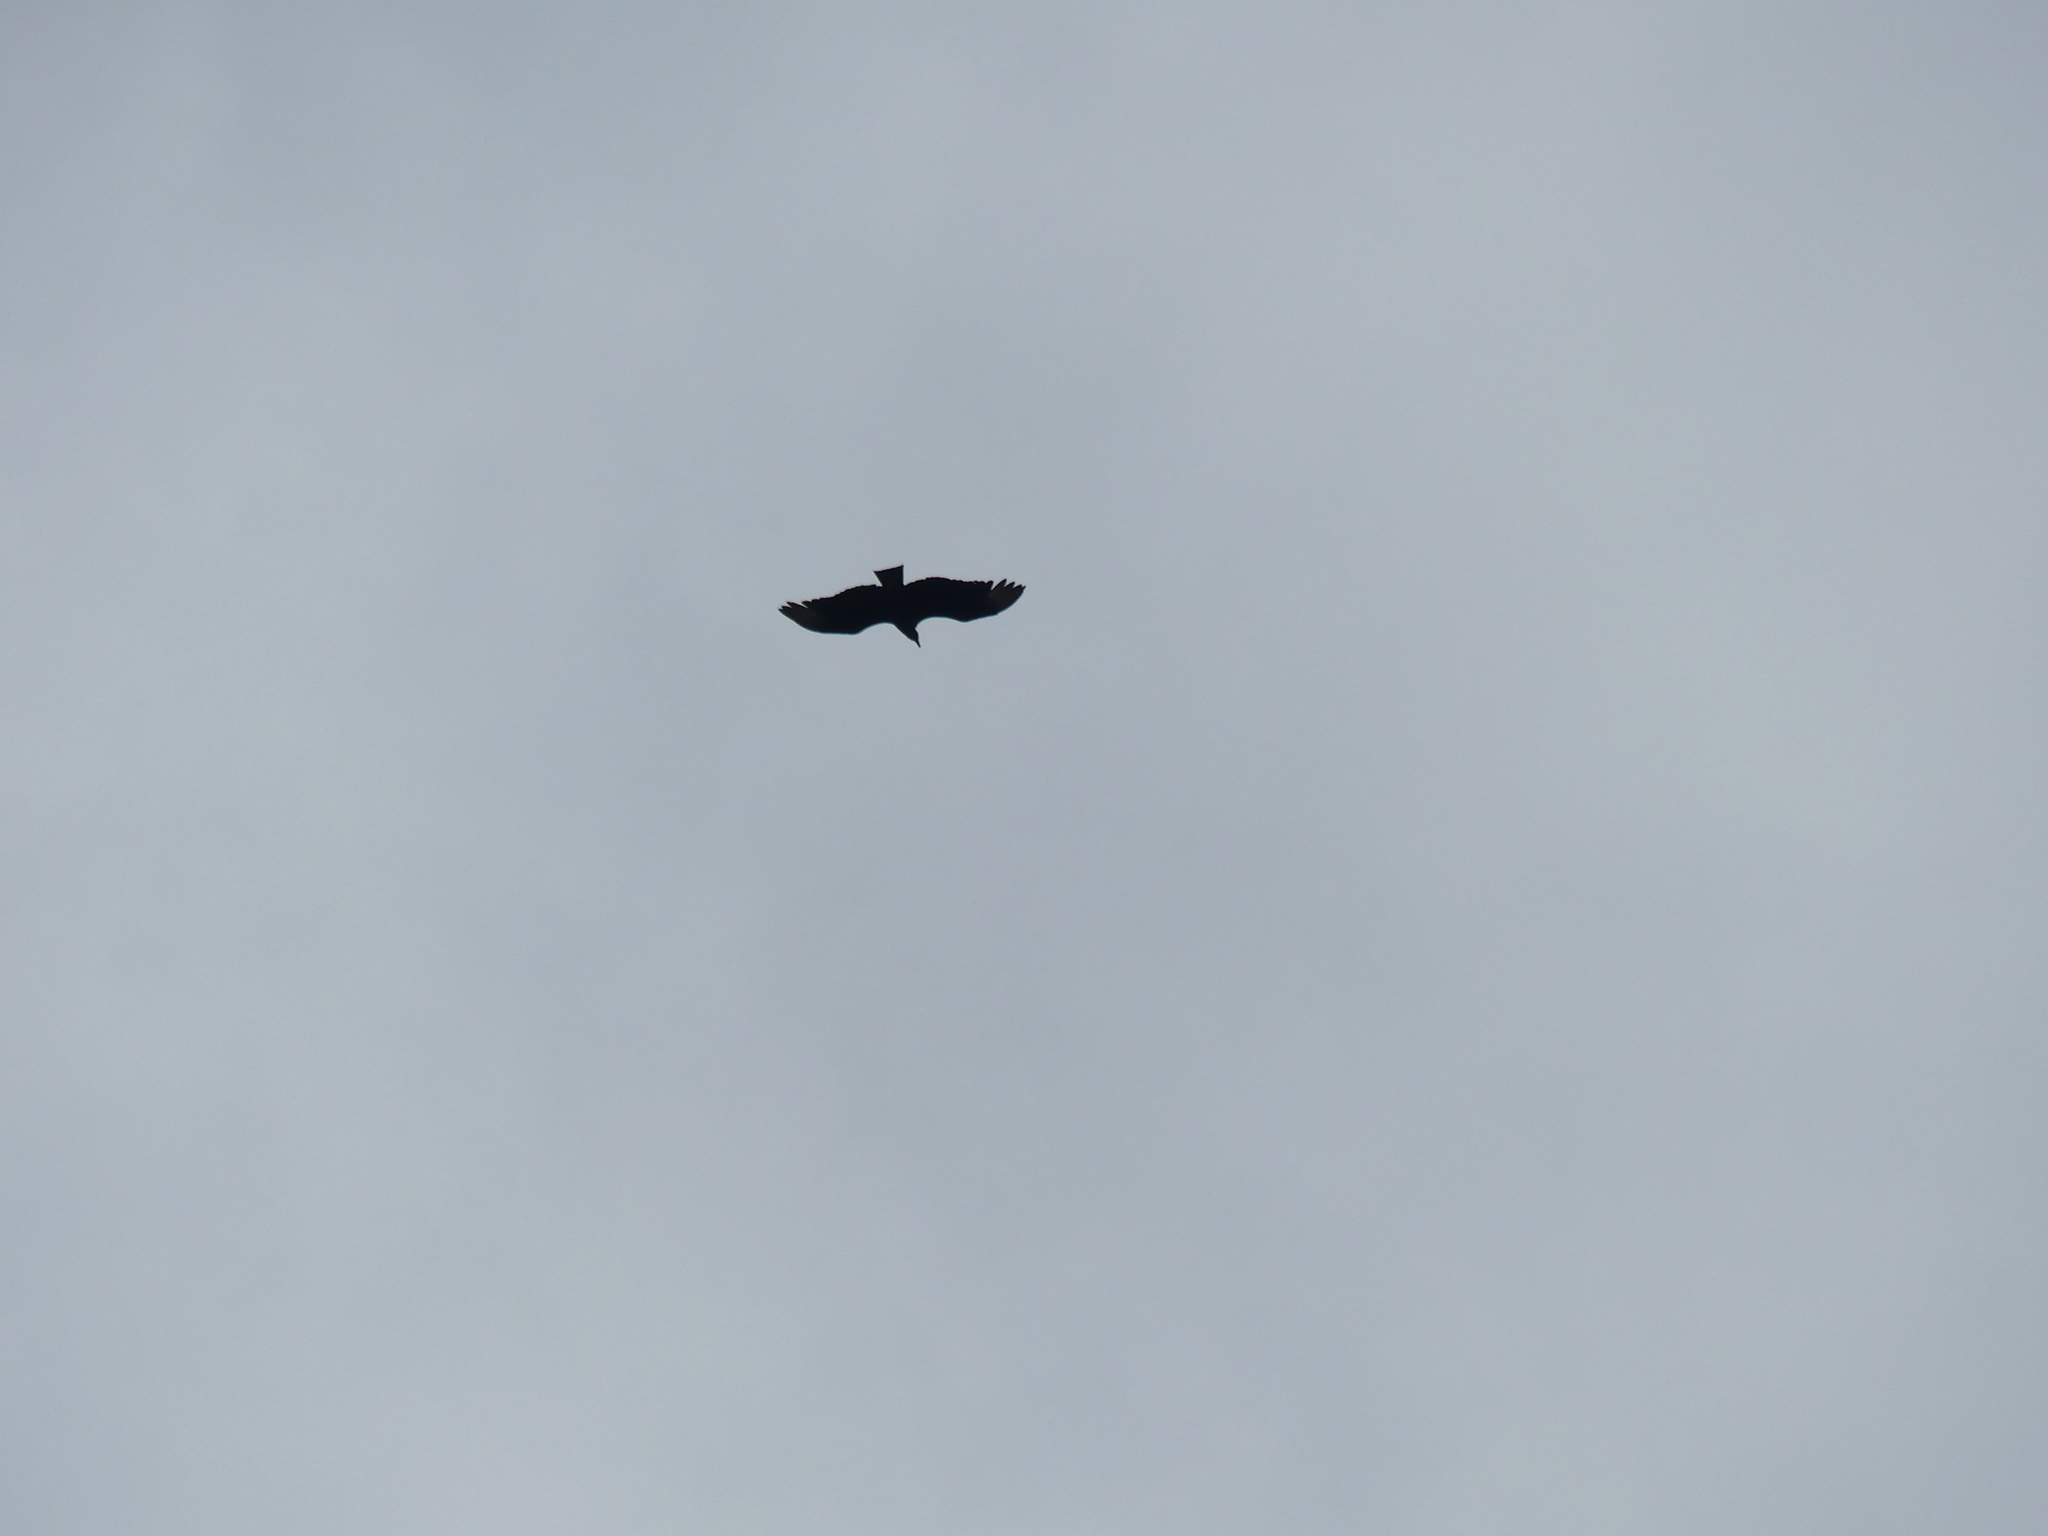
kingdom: Animalia
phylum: Chordata
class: Aves
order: Accipitriformes
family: Cathartidae
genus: Coragyps
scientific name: Coragyps atratus
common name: Black vulture
